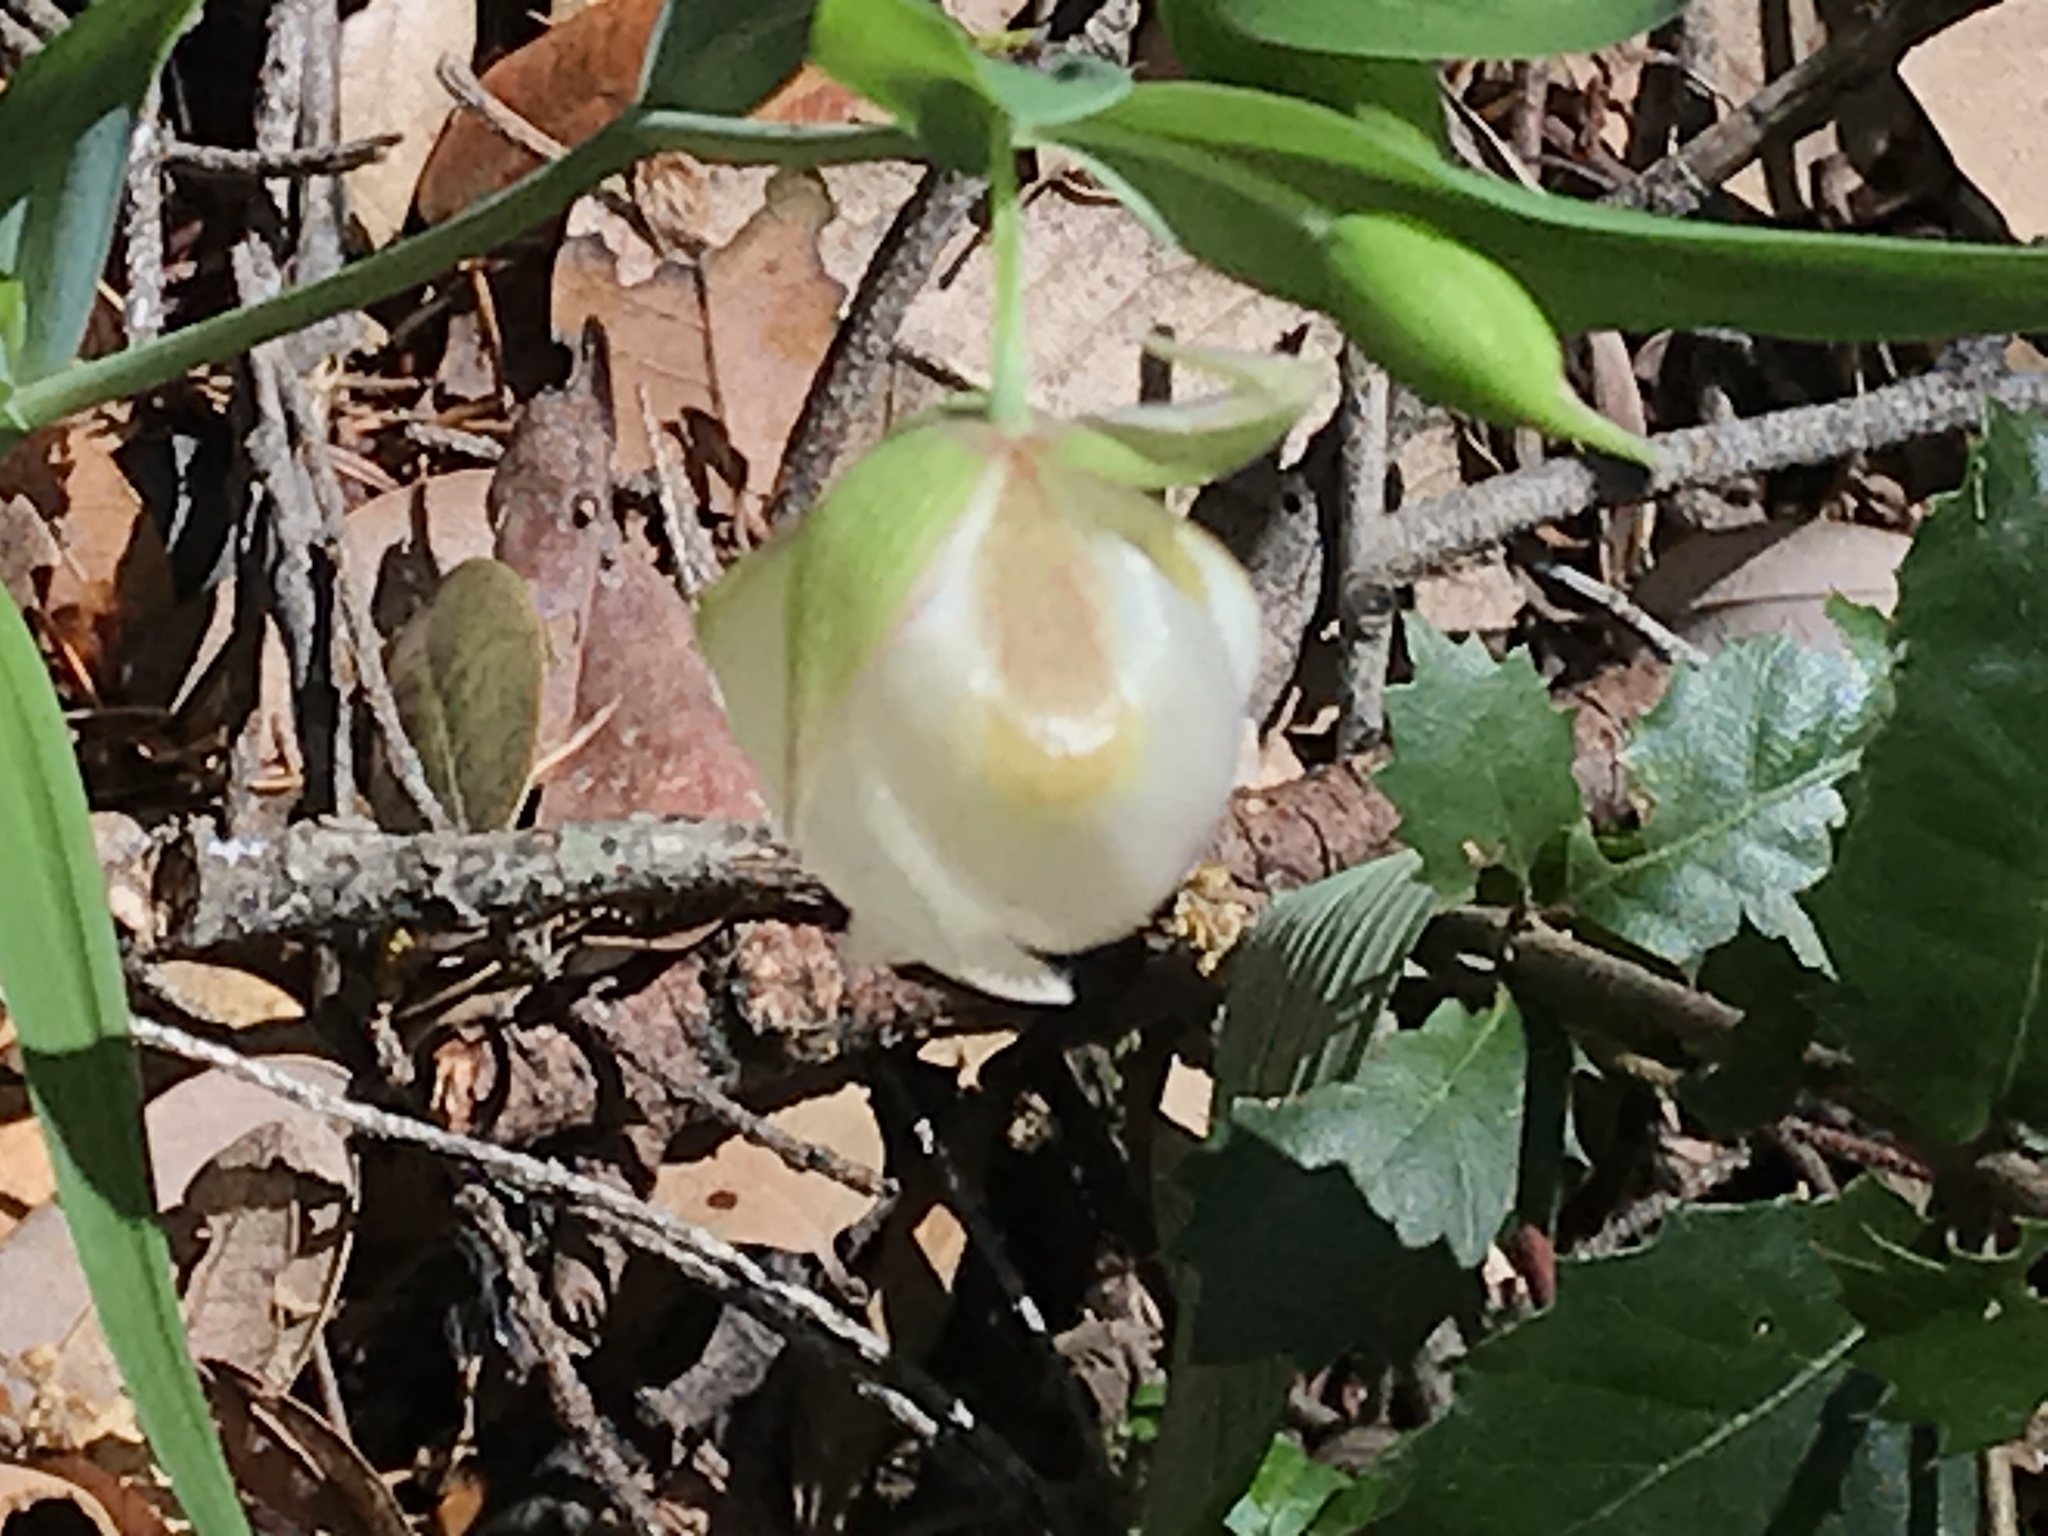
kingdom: Plantae
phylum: Tracheophyta
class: Liliopsida
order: Liliales
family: Liliaceae
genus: Calochortus
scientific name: Calochortus albus
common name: Fairy-lantern
